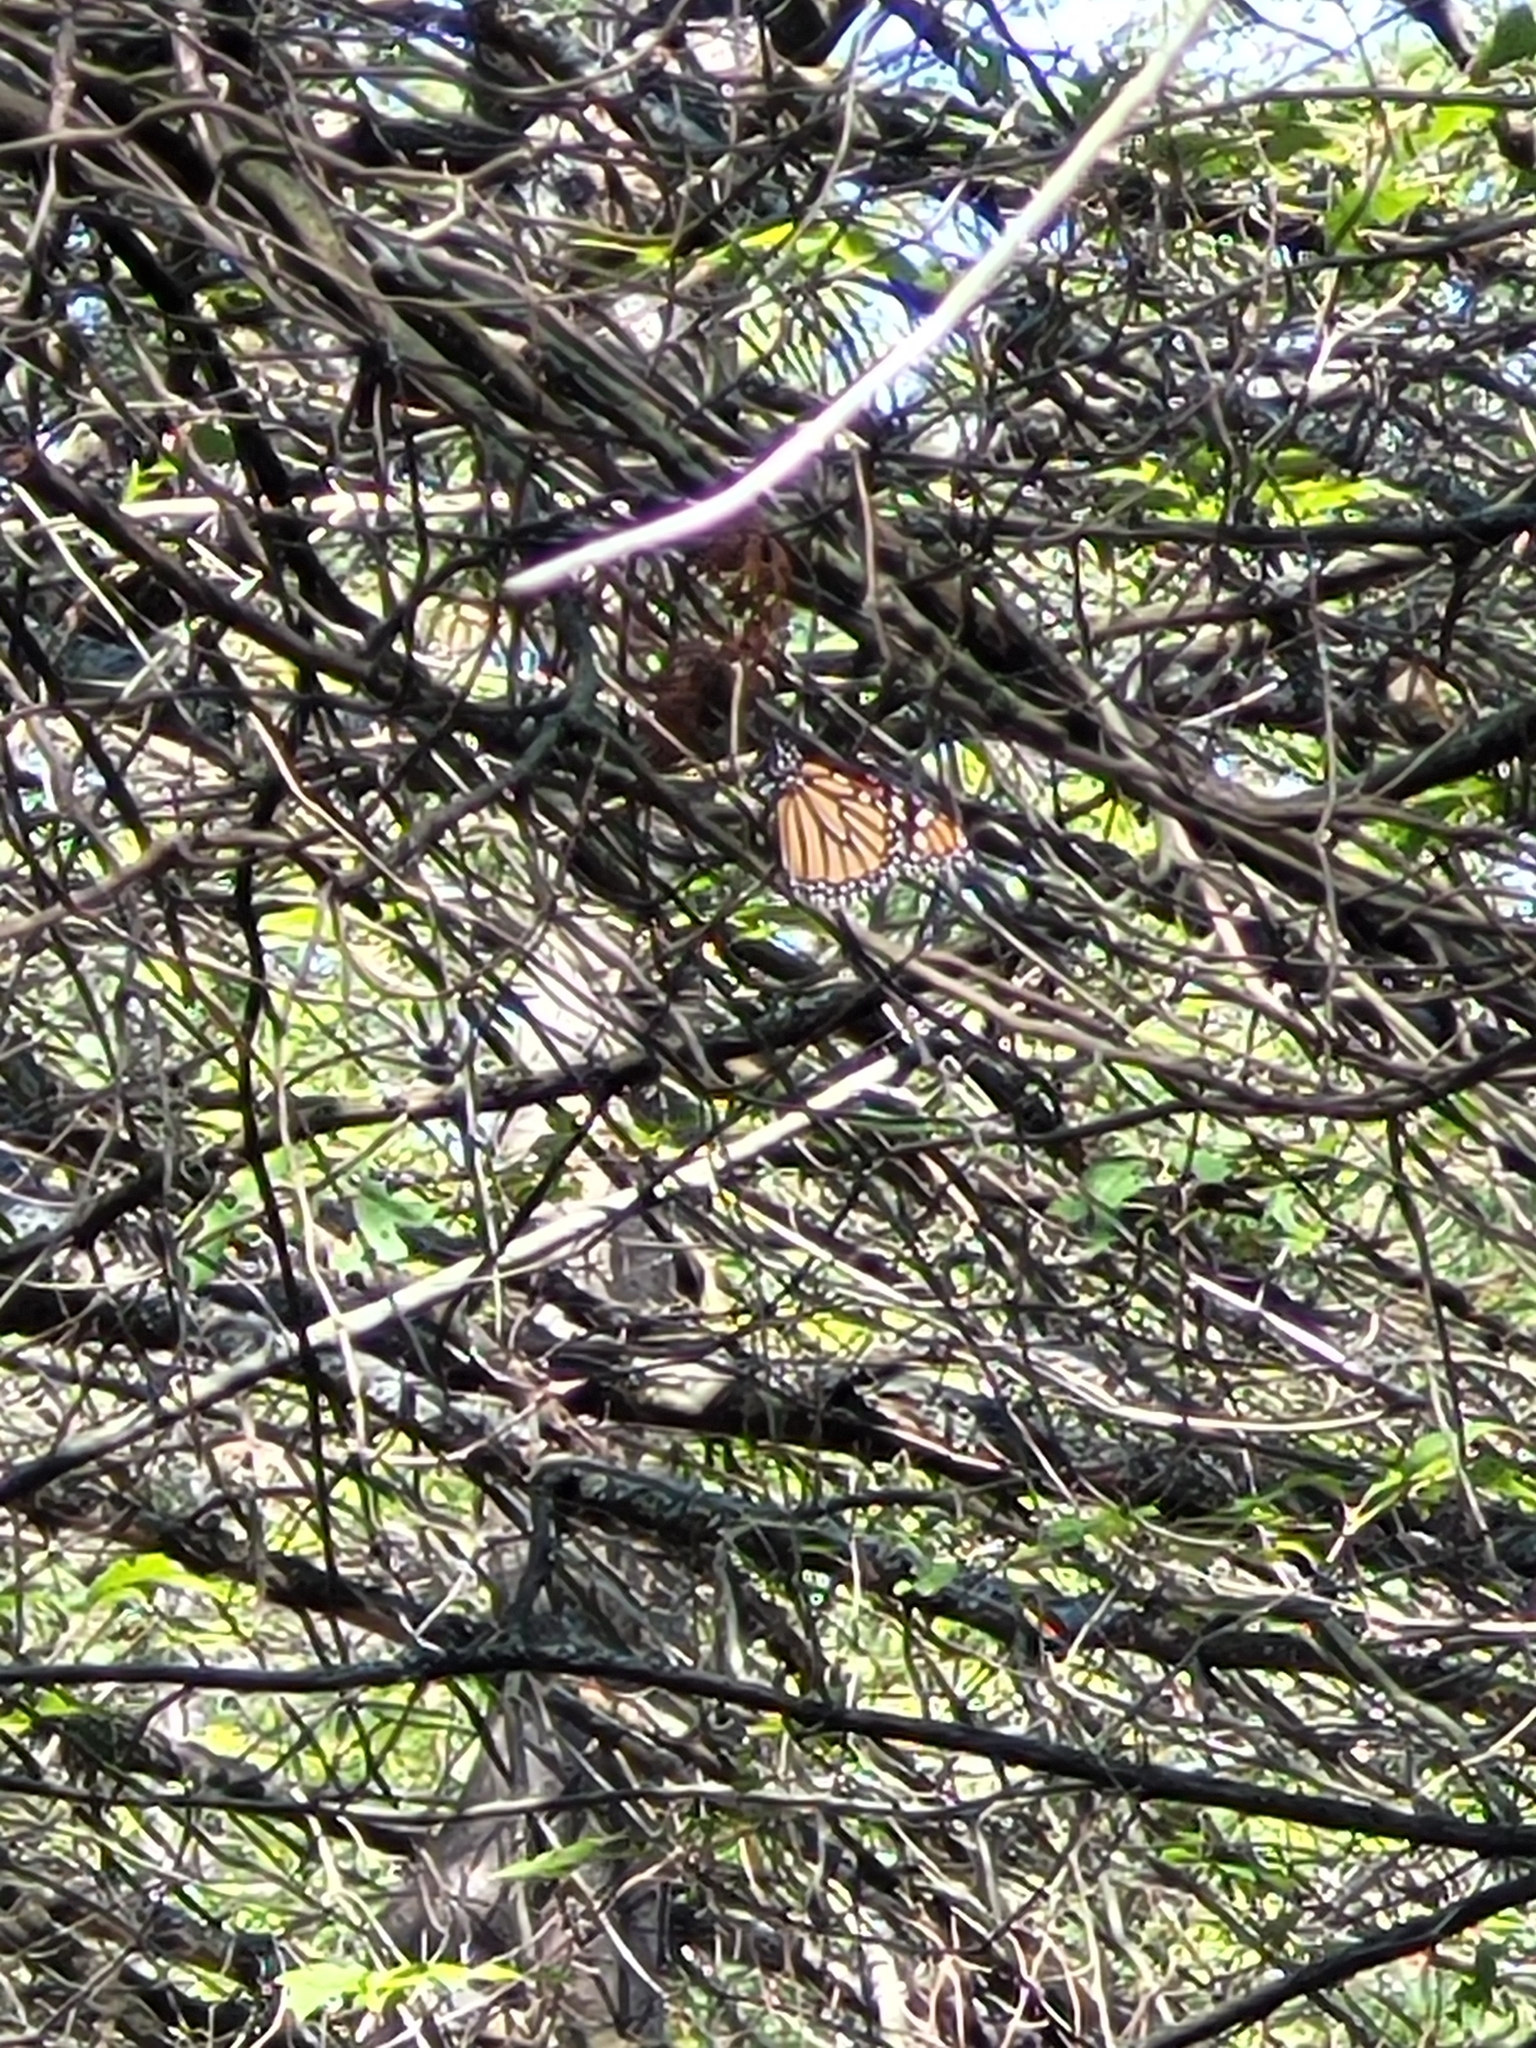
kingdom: Animalia
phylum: Arthropoda
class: Insecta
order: Lepidoptera
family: Nymphalidae
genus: Danaus
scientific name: Danaus plexippus
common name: Monarch
